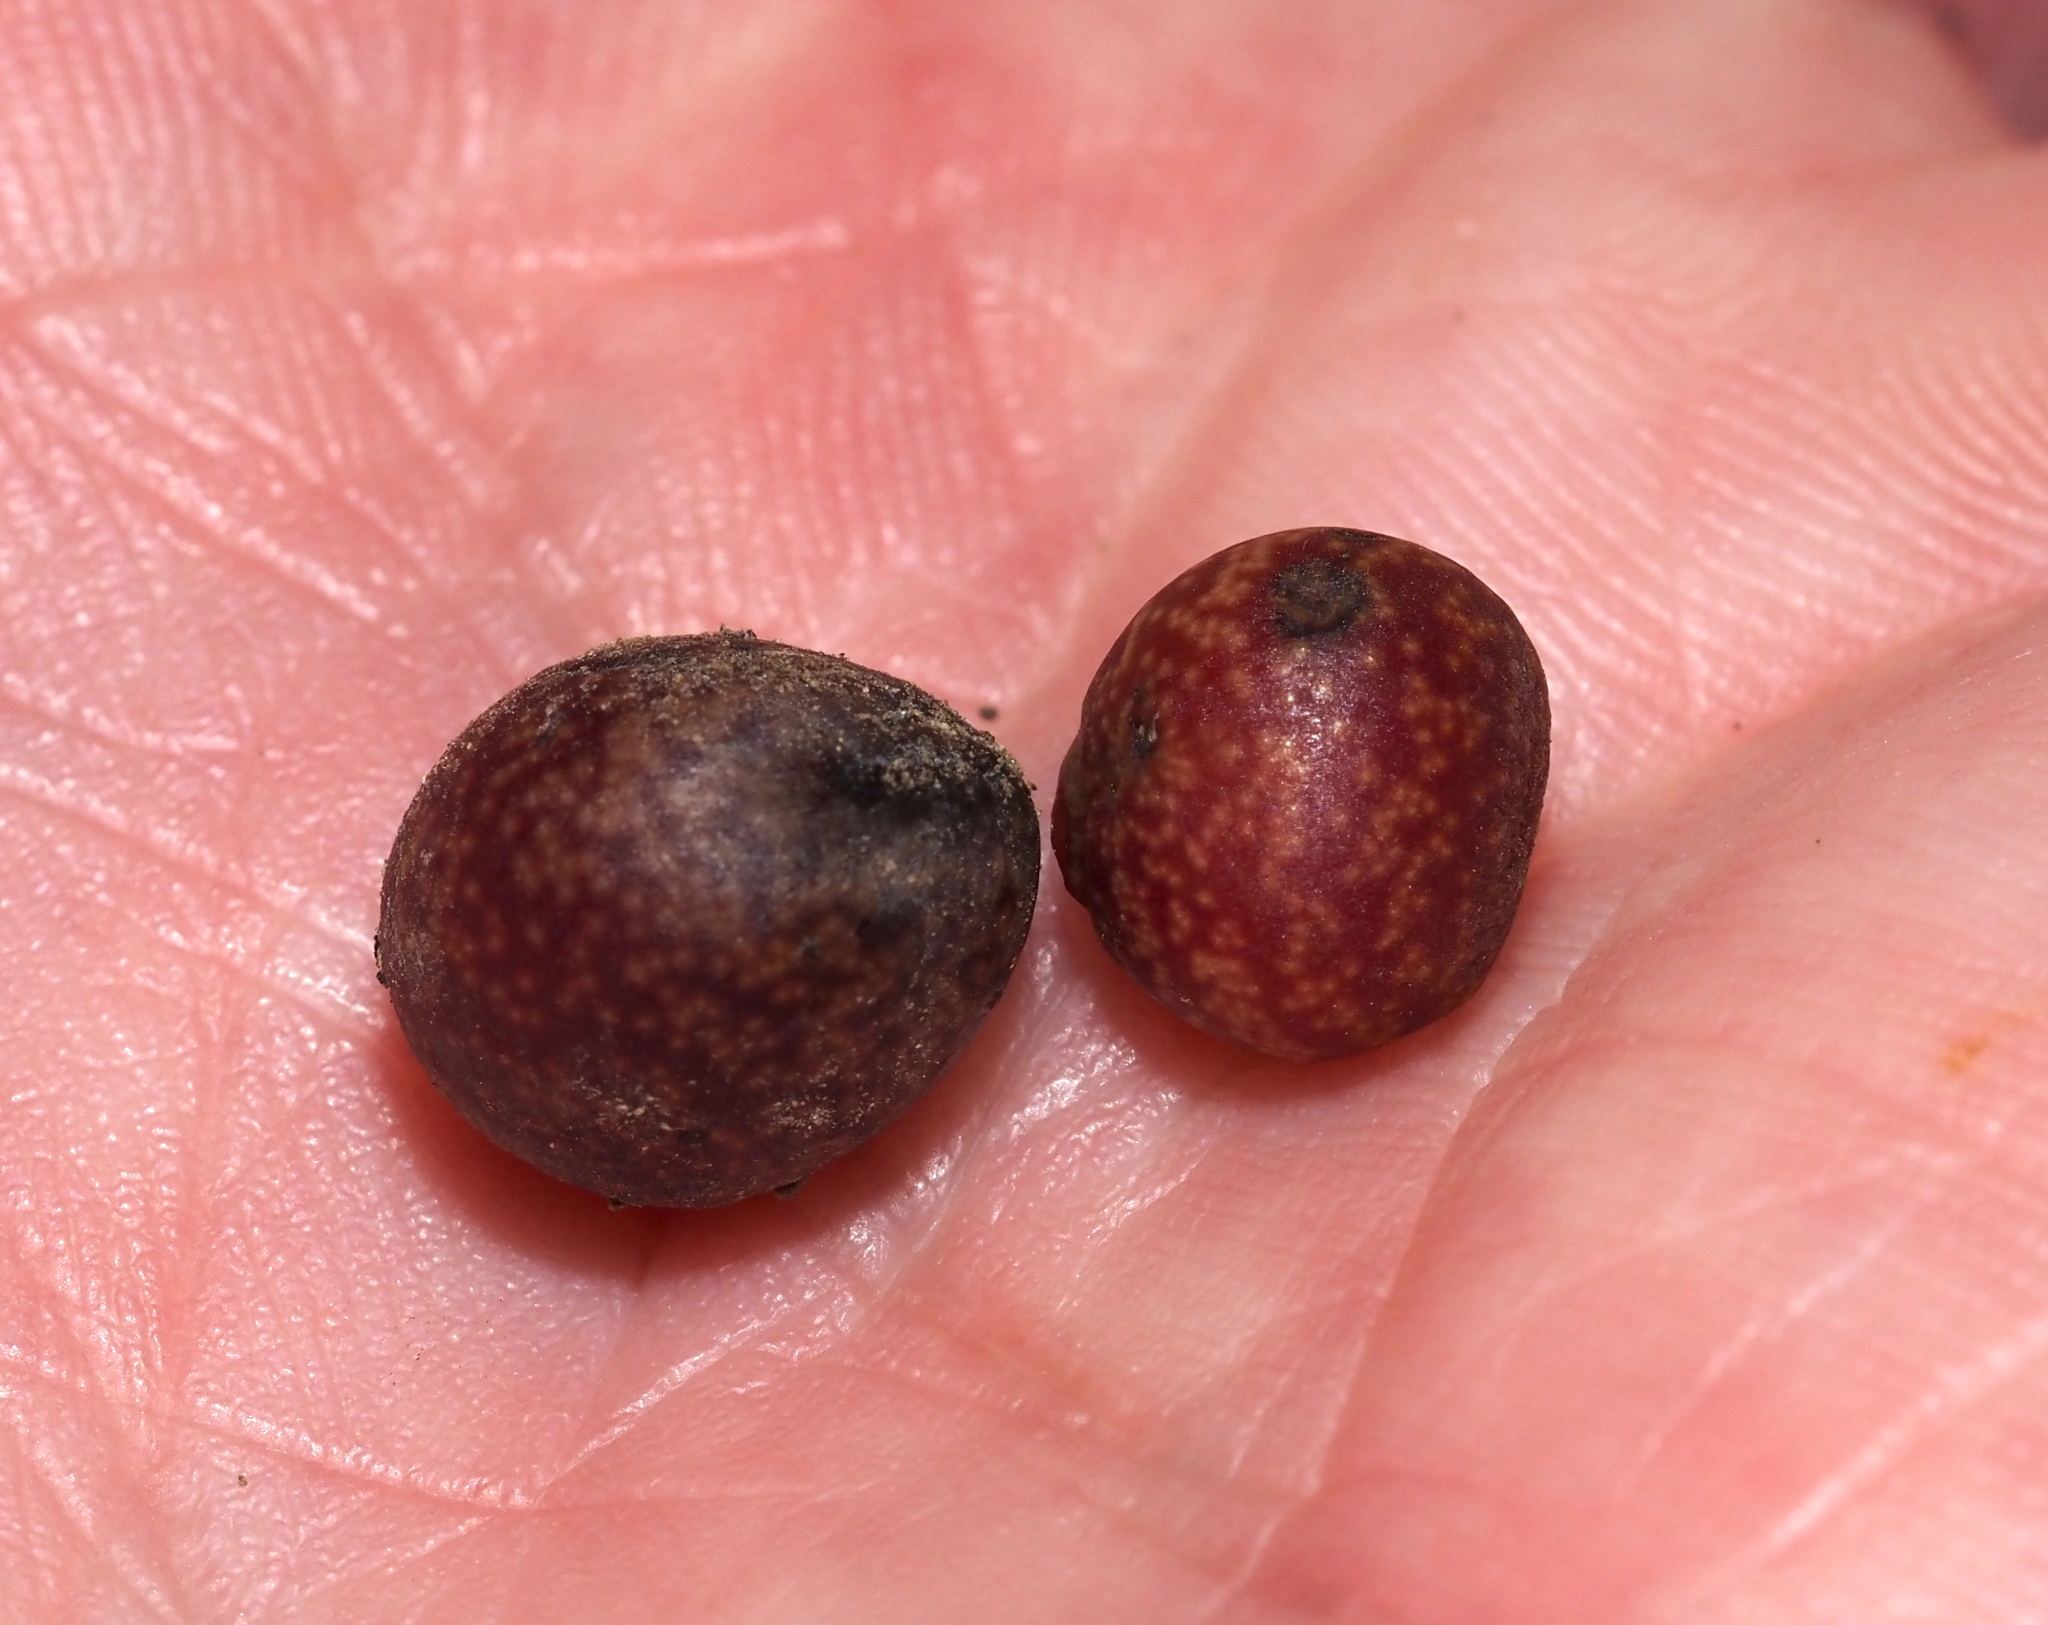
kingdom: Animalia
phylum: Arthropoda
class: Insecta
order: Hymenoptera
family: Cynipidae
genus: Kokkocynips
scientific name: Kokkocynips imbricariae
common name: Banded bullet gall wasp
